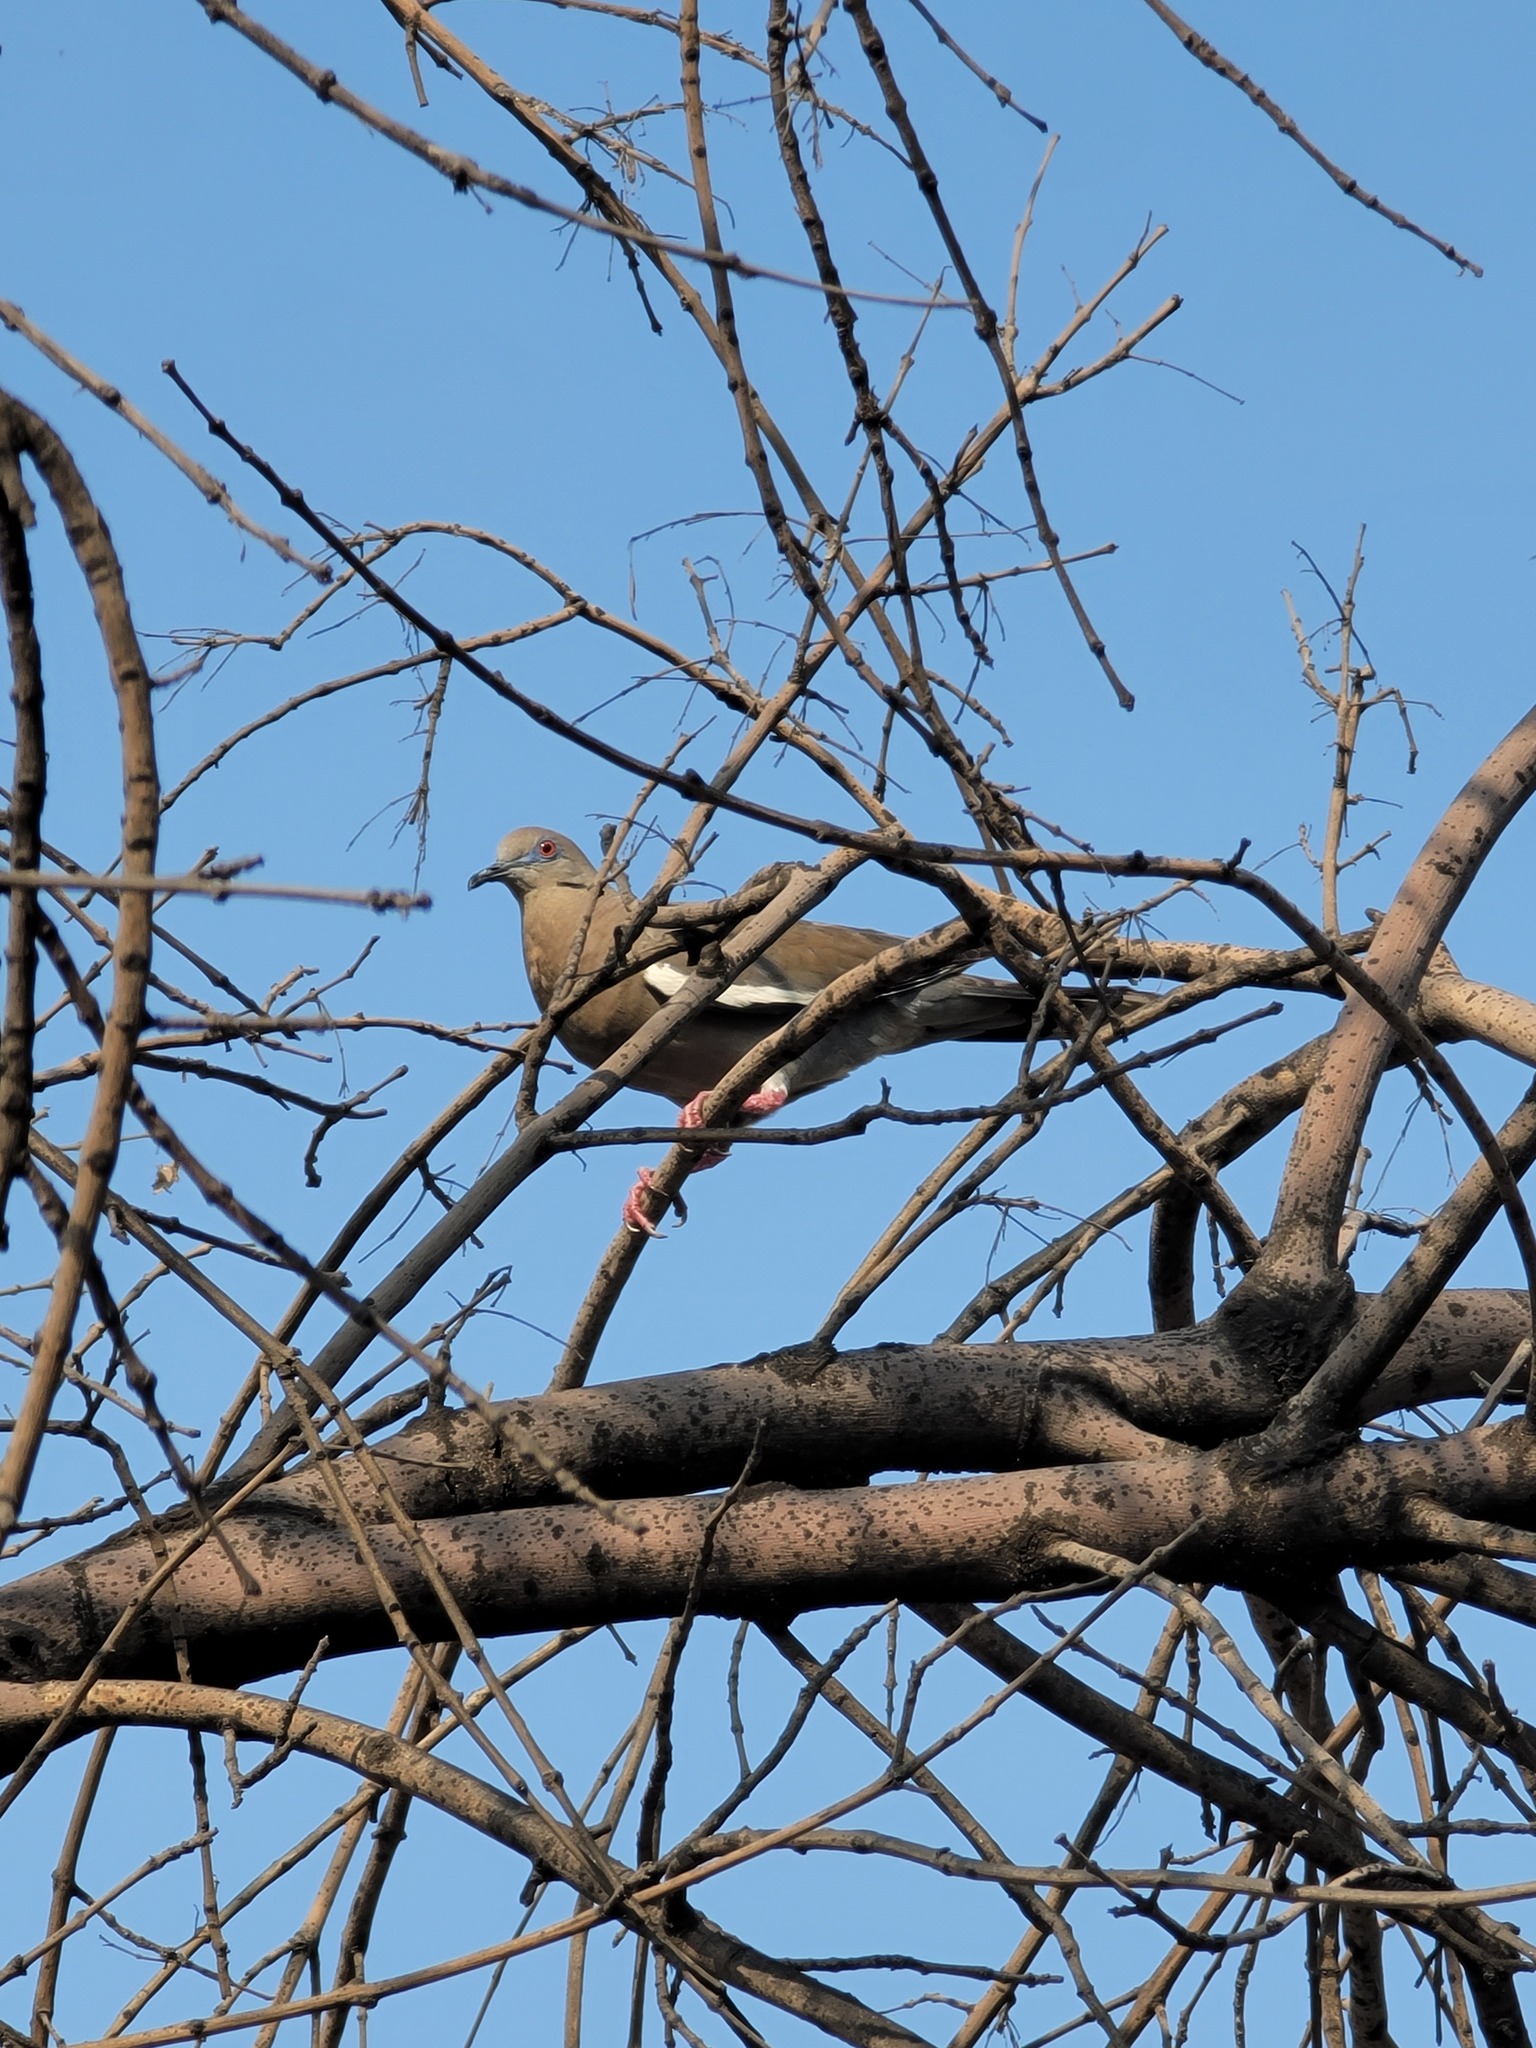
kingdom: Animalia
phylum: Chordata
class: Aves
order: Columbiformes
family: Columbidae
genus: Zenaida
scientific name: Zenaida asiatica
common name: White-winged dove
